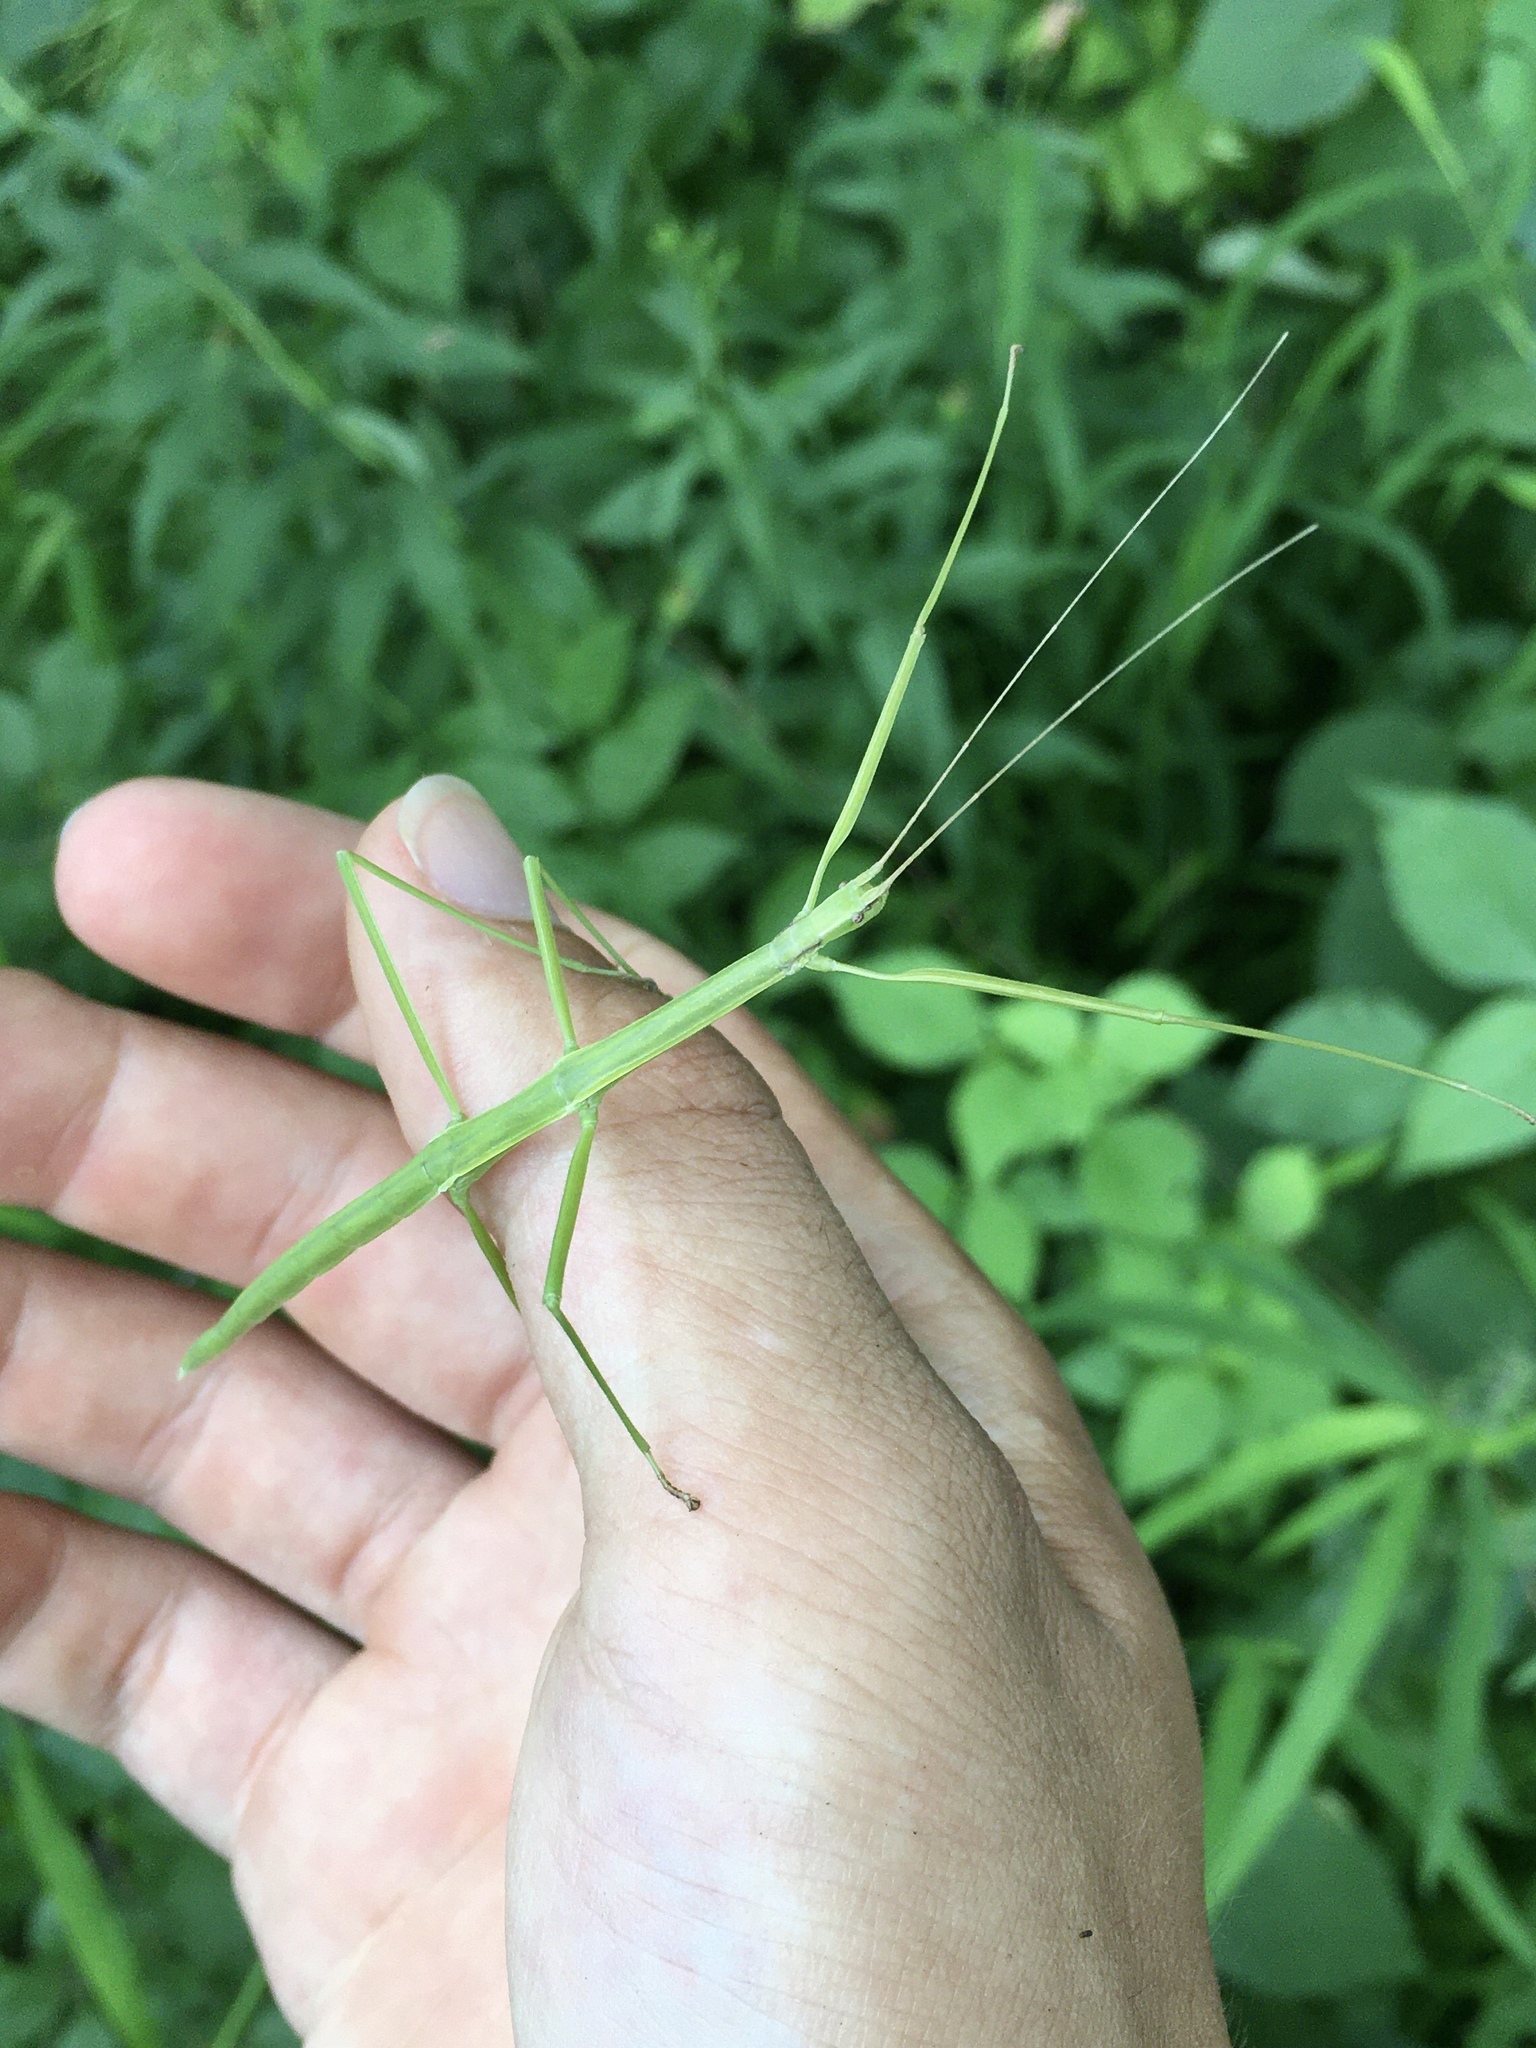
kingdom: Animalia
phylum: Arthropoda
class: Insecta
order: Phasmida
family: Diapheromeridae
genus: Diapheromera
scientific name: Diapheromera femorata
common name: Common american walkingstick
